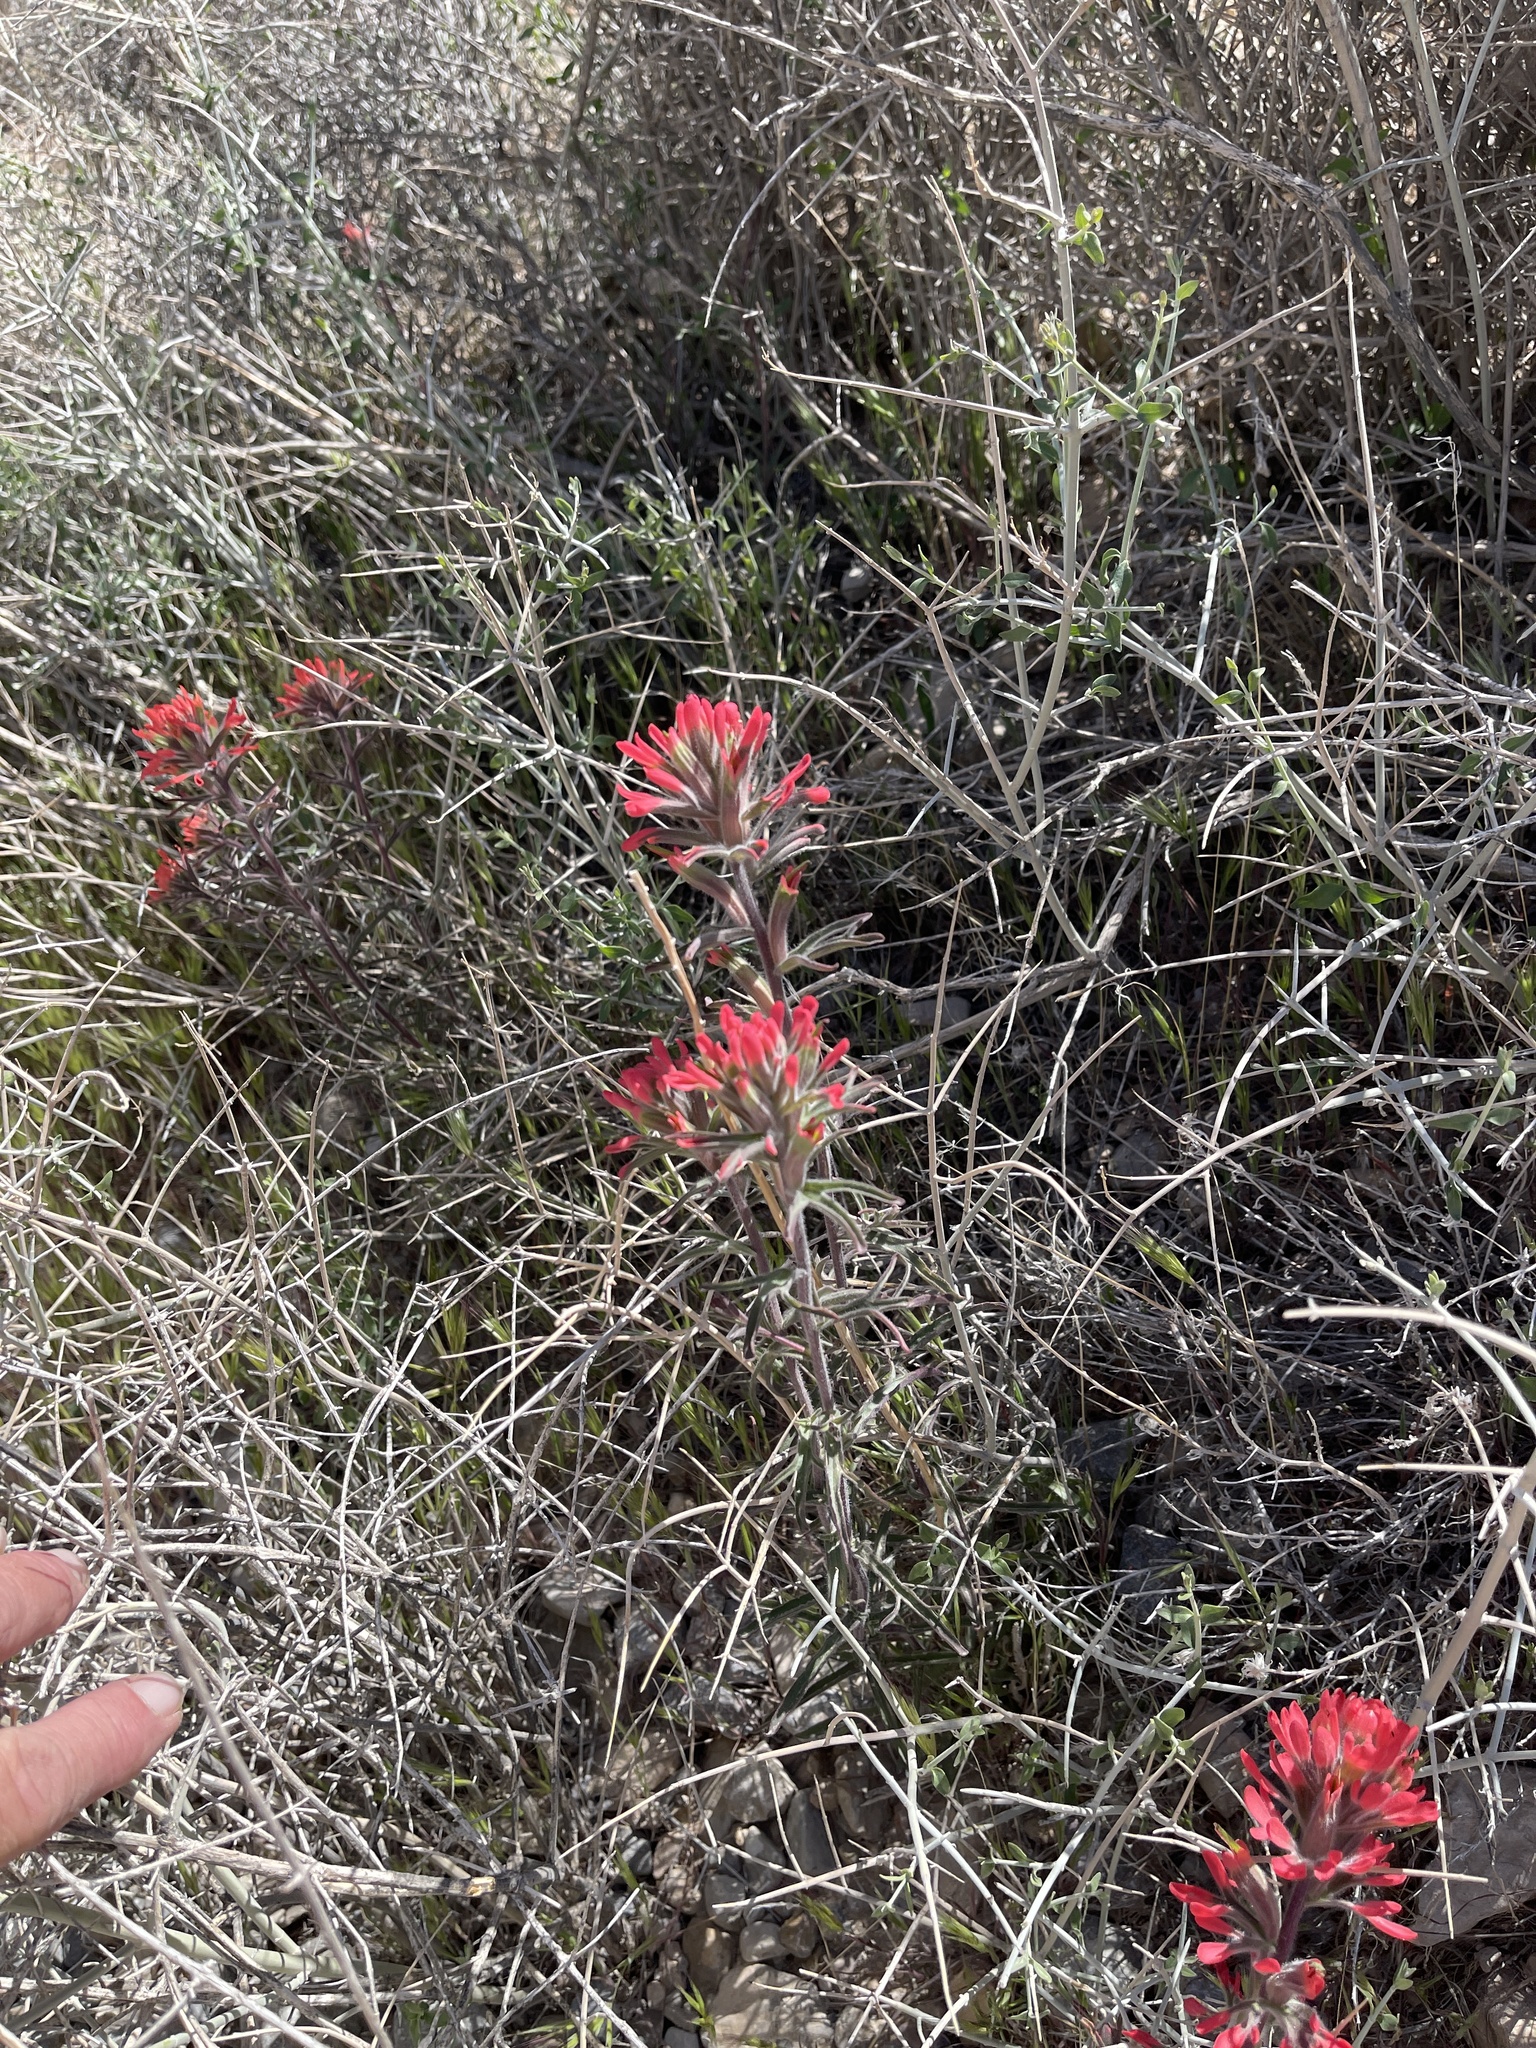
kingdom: Plantae
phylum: Tracheophyta
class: Magnoliopsida
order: Lamiales
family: Orobanchaceae
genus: Castilleja
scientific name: Castilleja chromosa
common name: Desert paintbrush
